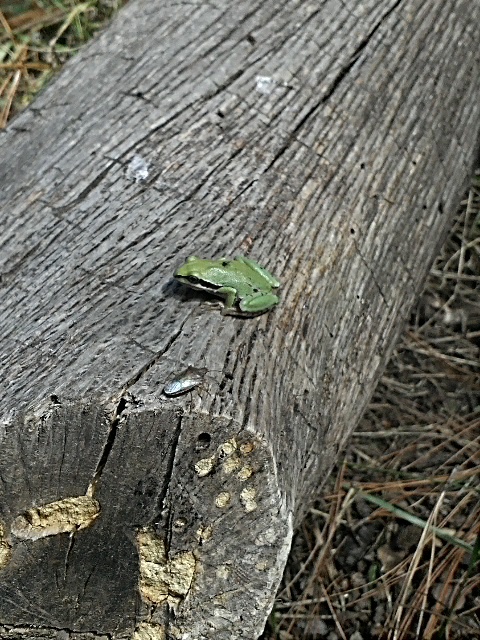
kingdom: Animalia
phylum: Chordata
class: Amphibia
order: Anura
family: Hylidae
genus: Dryophytes
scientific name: Dryophytes eximius
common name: Mountain treefrog
